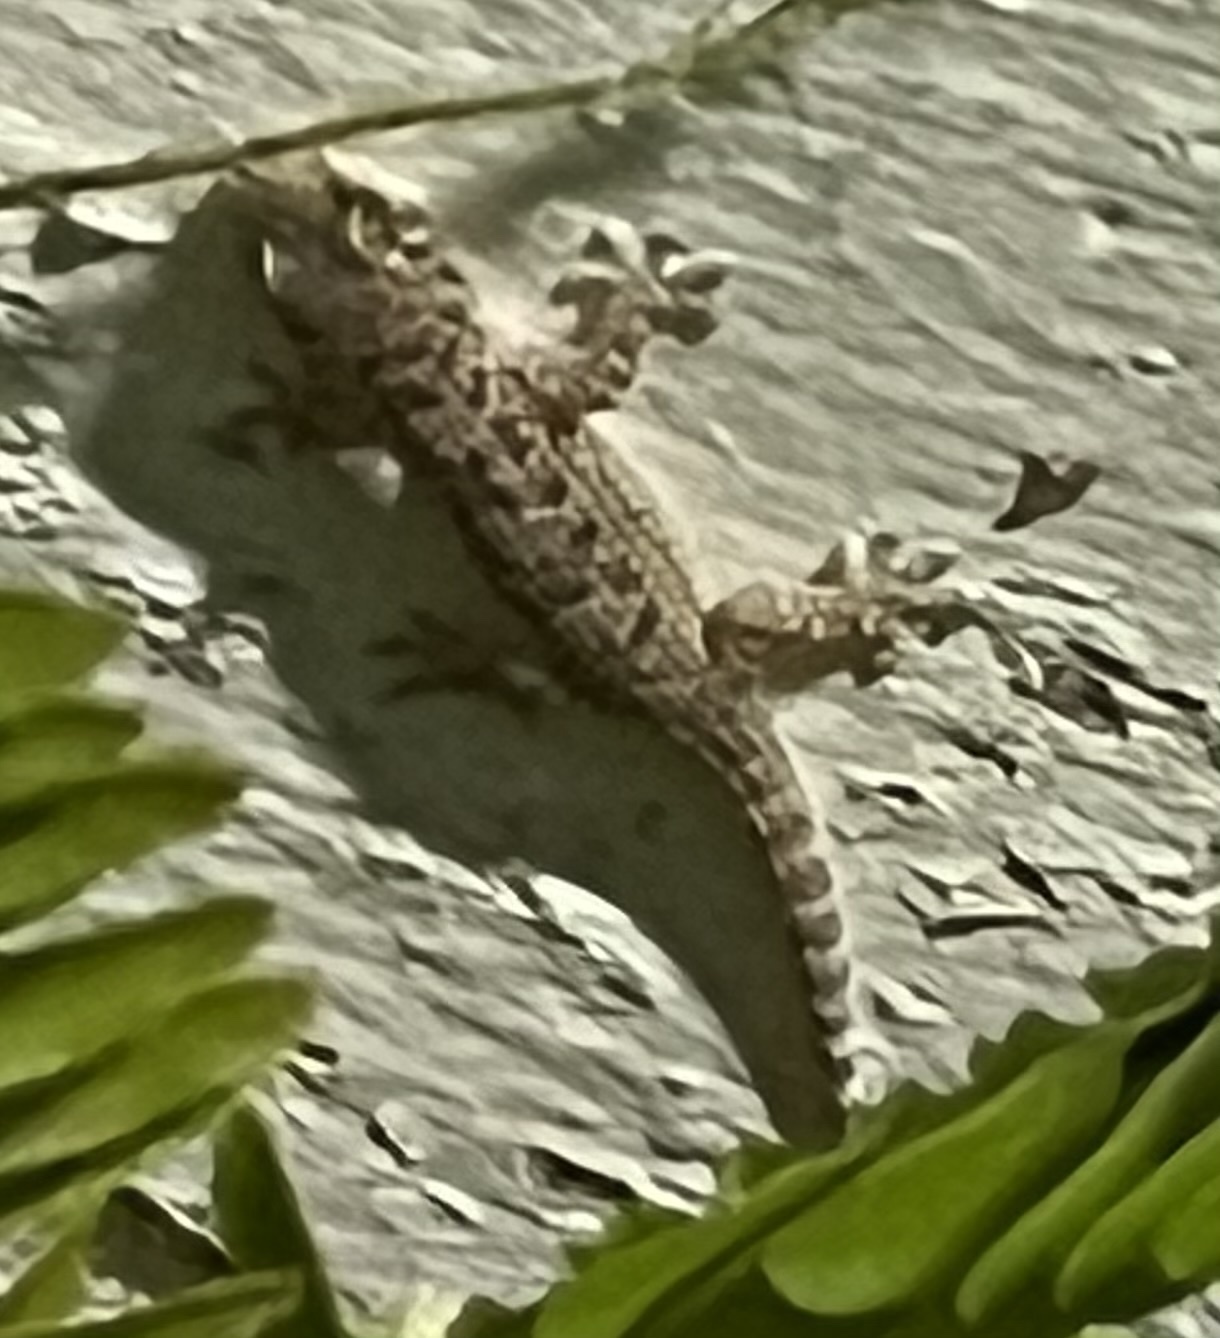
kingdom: Animalia
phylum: Chordata
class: Squamata
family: Gekkonidae
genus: Hemidactylus
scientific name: Hemidactylus turcicus
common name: Turkish gecko
